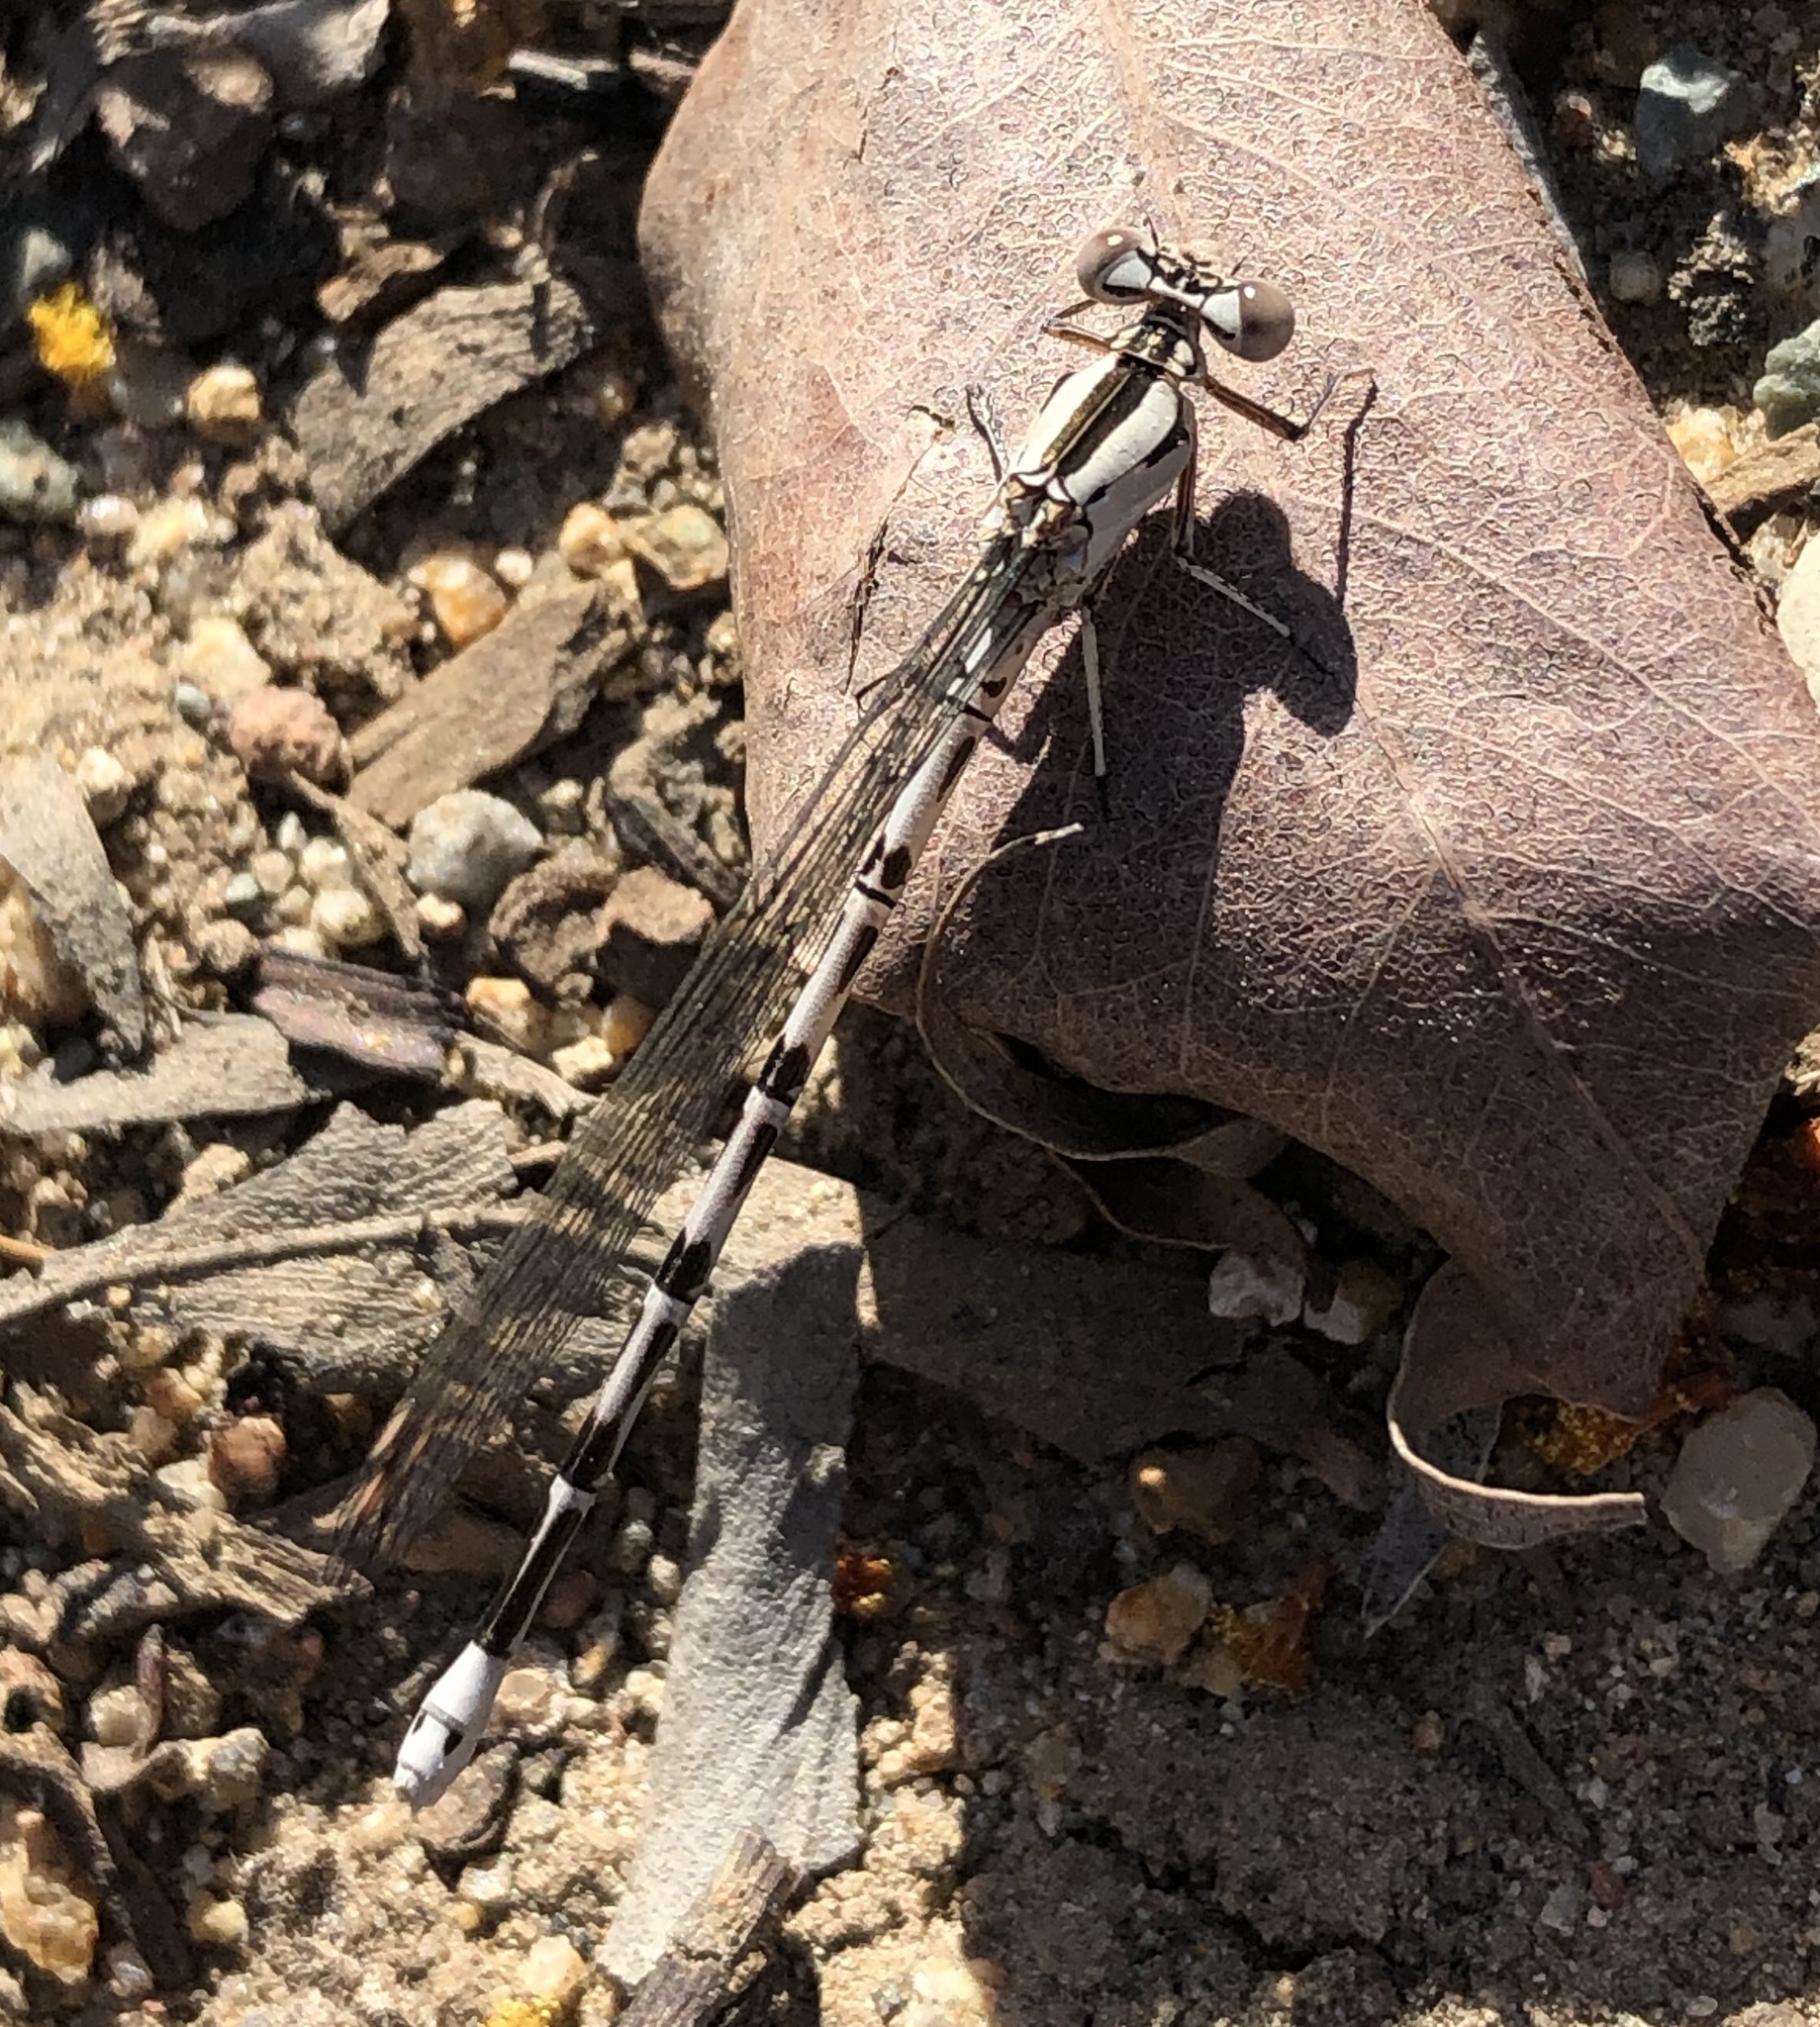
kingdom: Animalia
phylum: Arthropoda
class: Insecta
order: Odonata
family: Coenagrionidae
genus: Argia
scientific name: Argia vivida
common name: Vivid dancer
